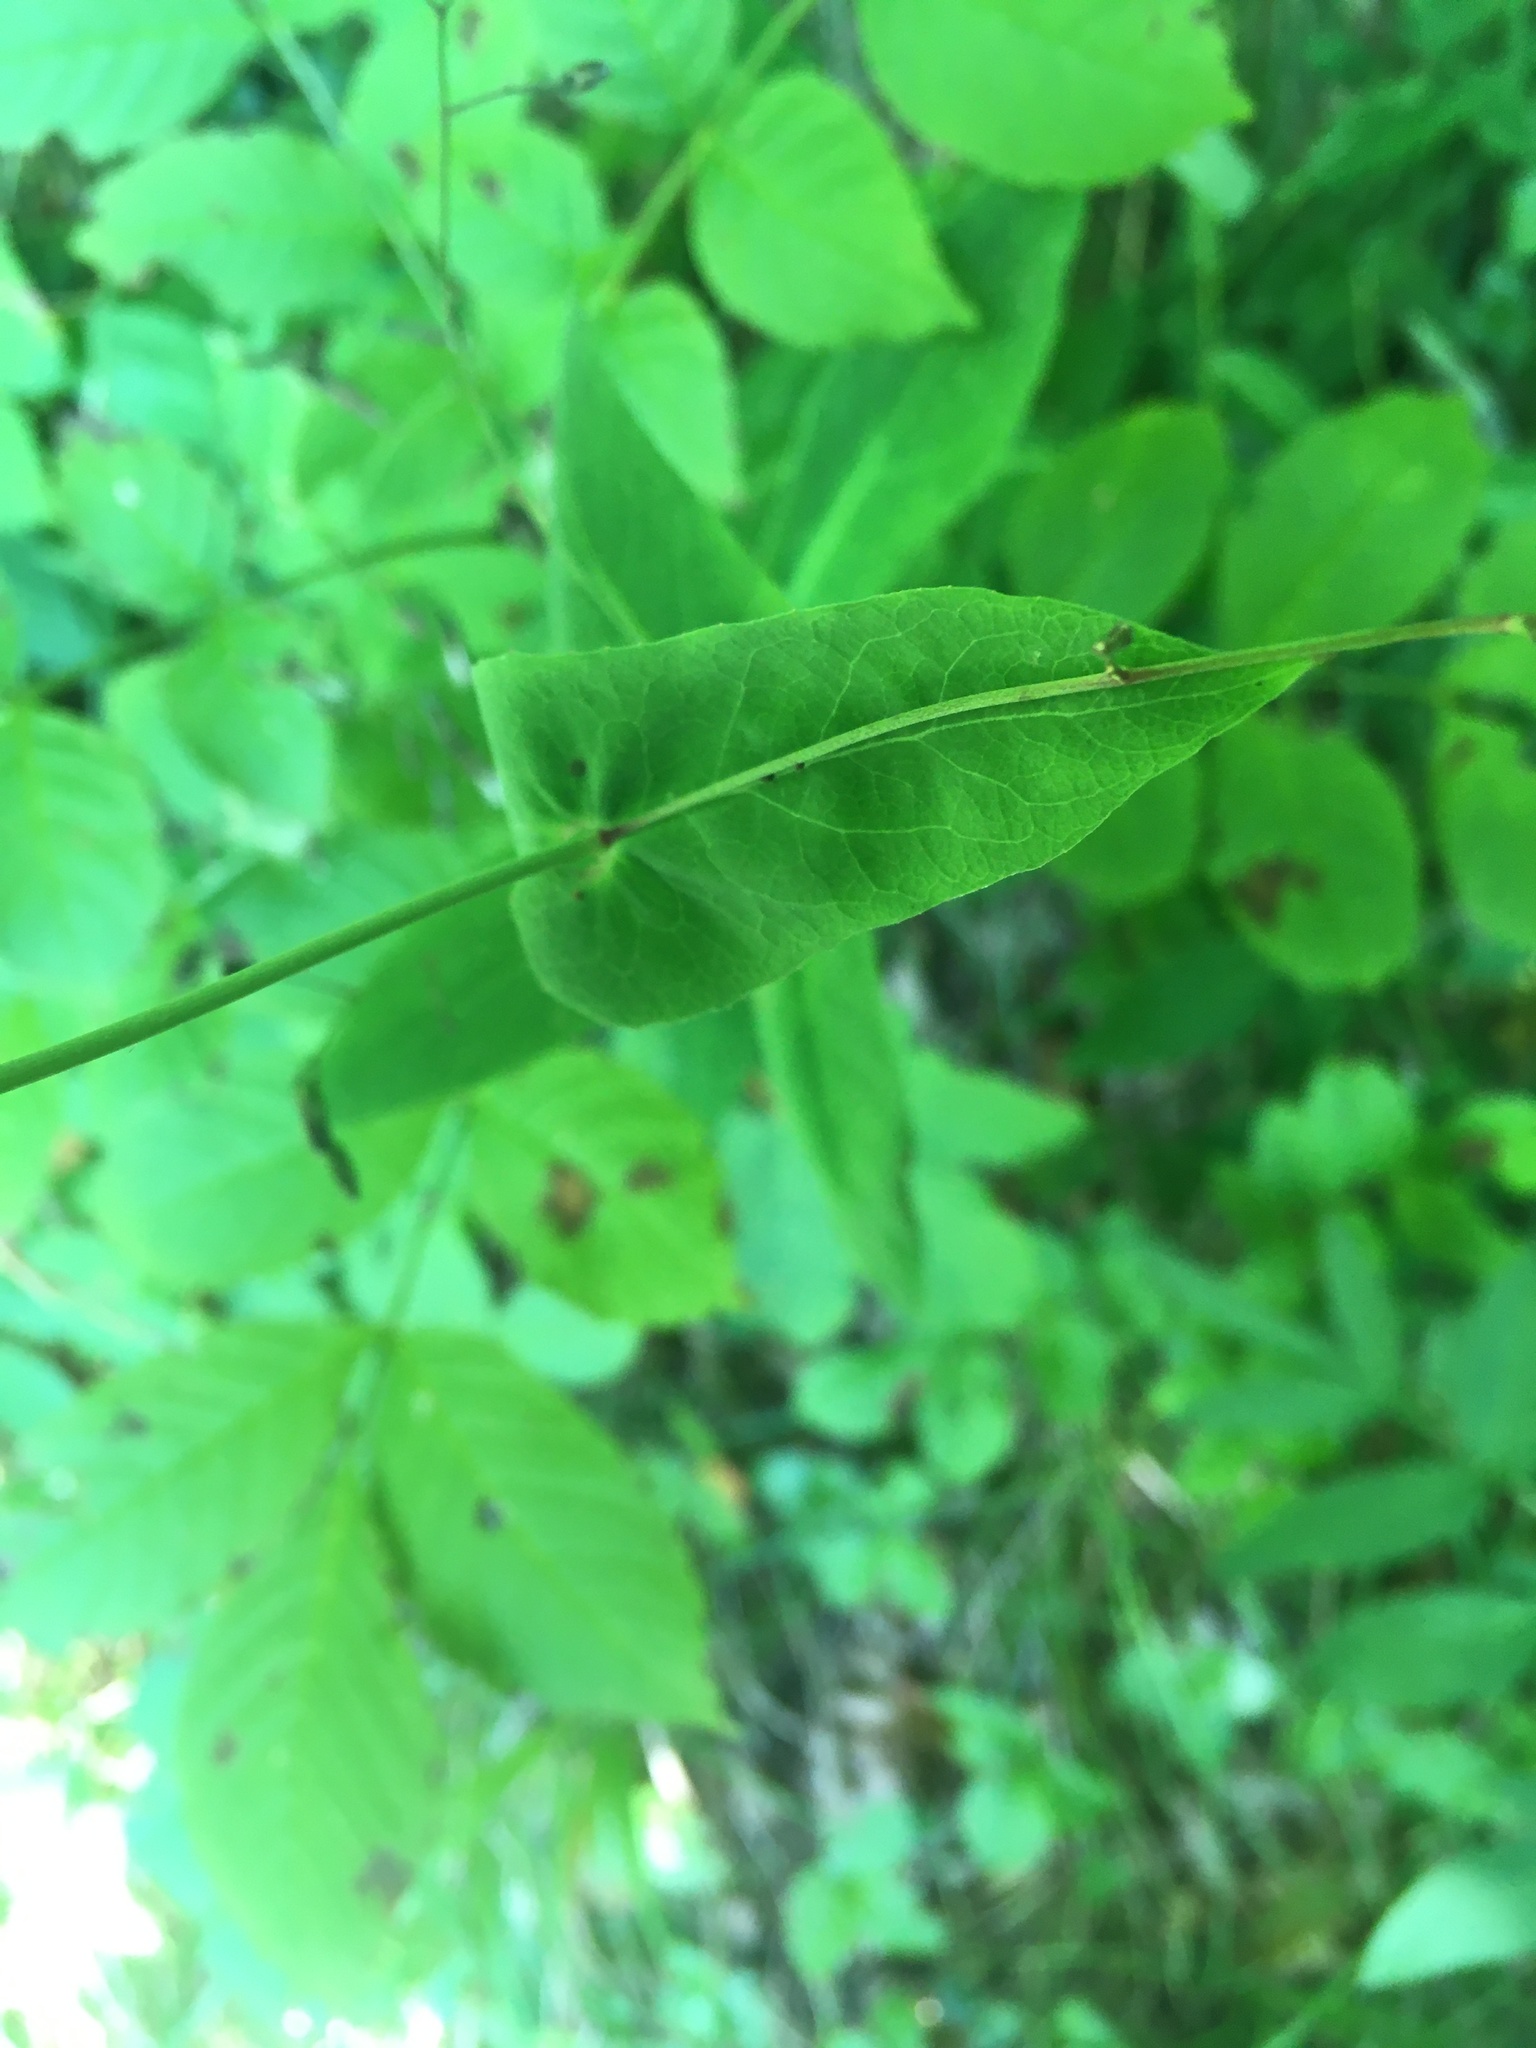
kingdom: Plantae
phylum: Tracheophyta
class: Magnoliopsida
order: Asterales
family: Asteraceae
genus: Prenanthes
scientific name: Prenanthes purpurea
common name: Purple lettuce
